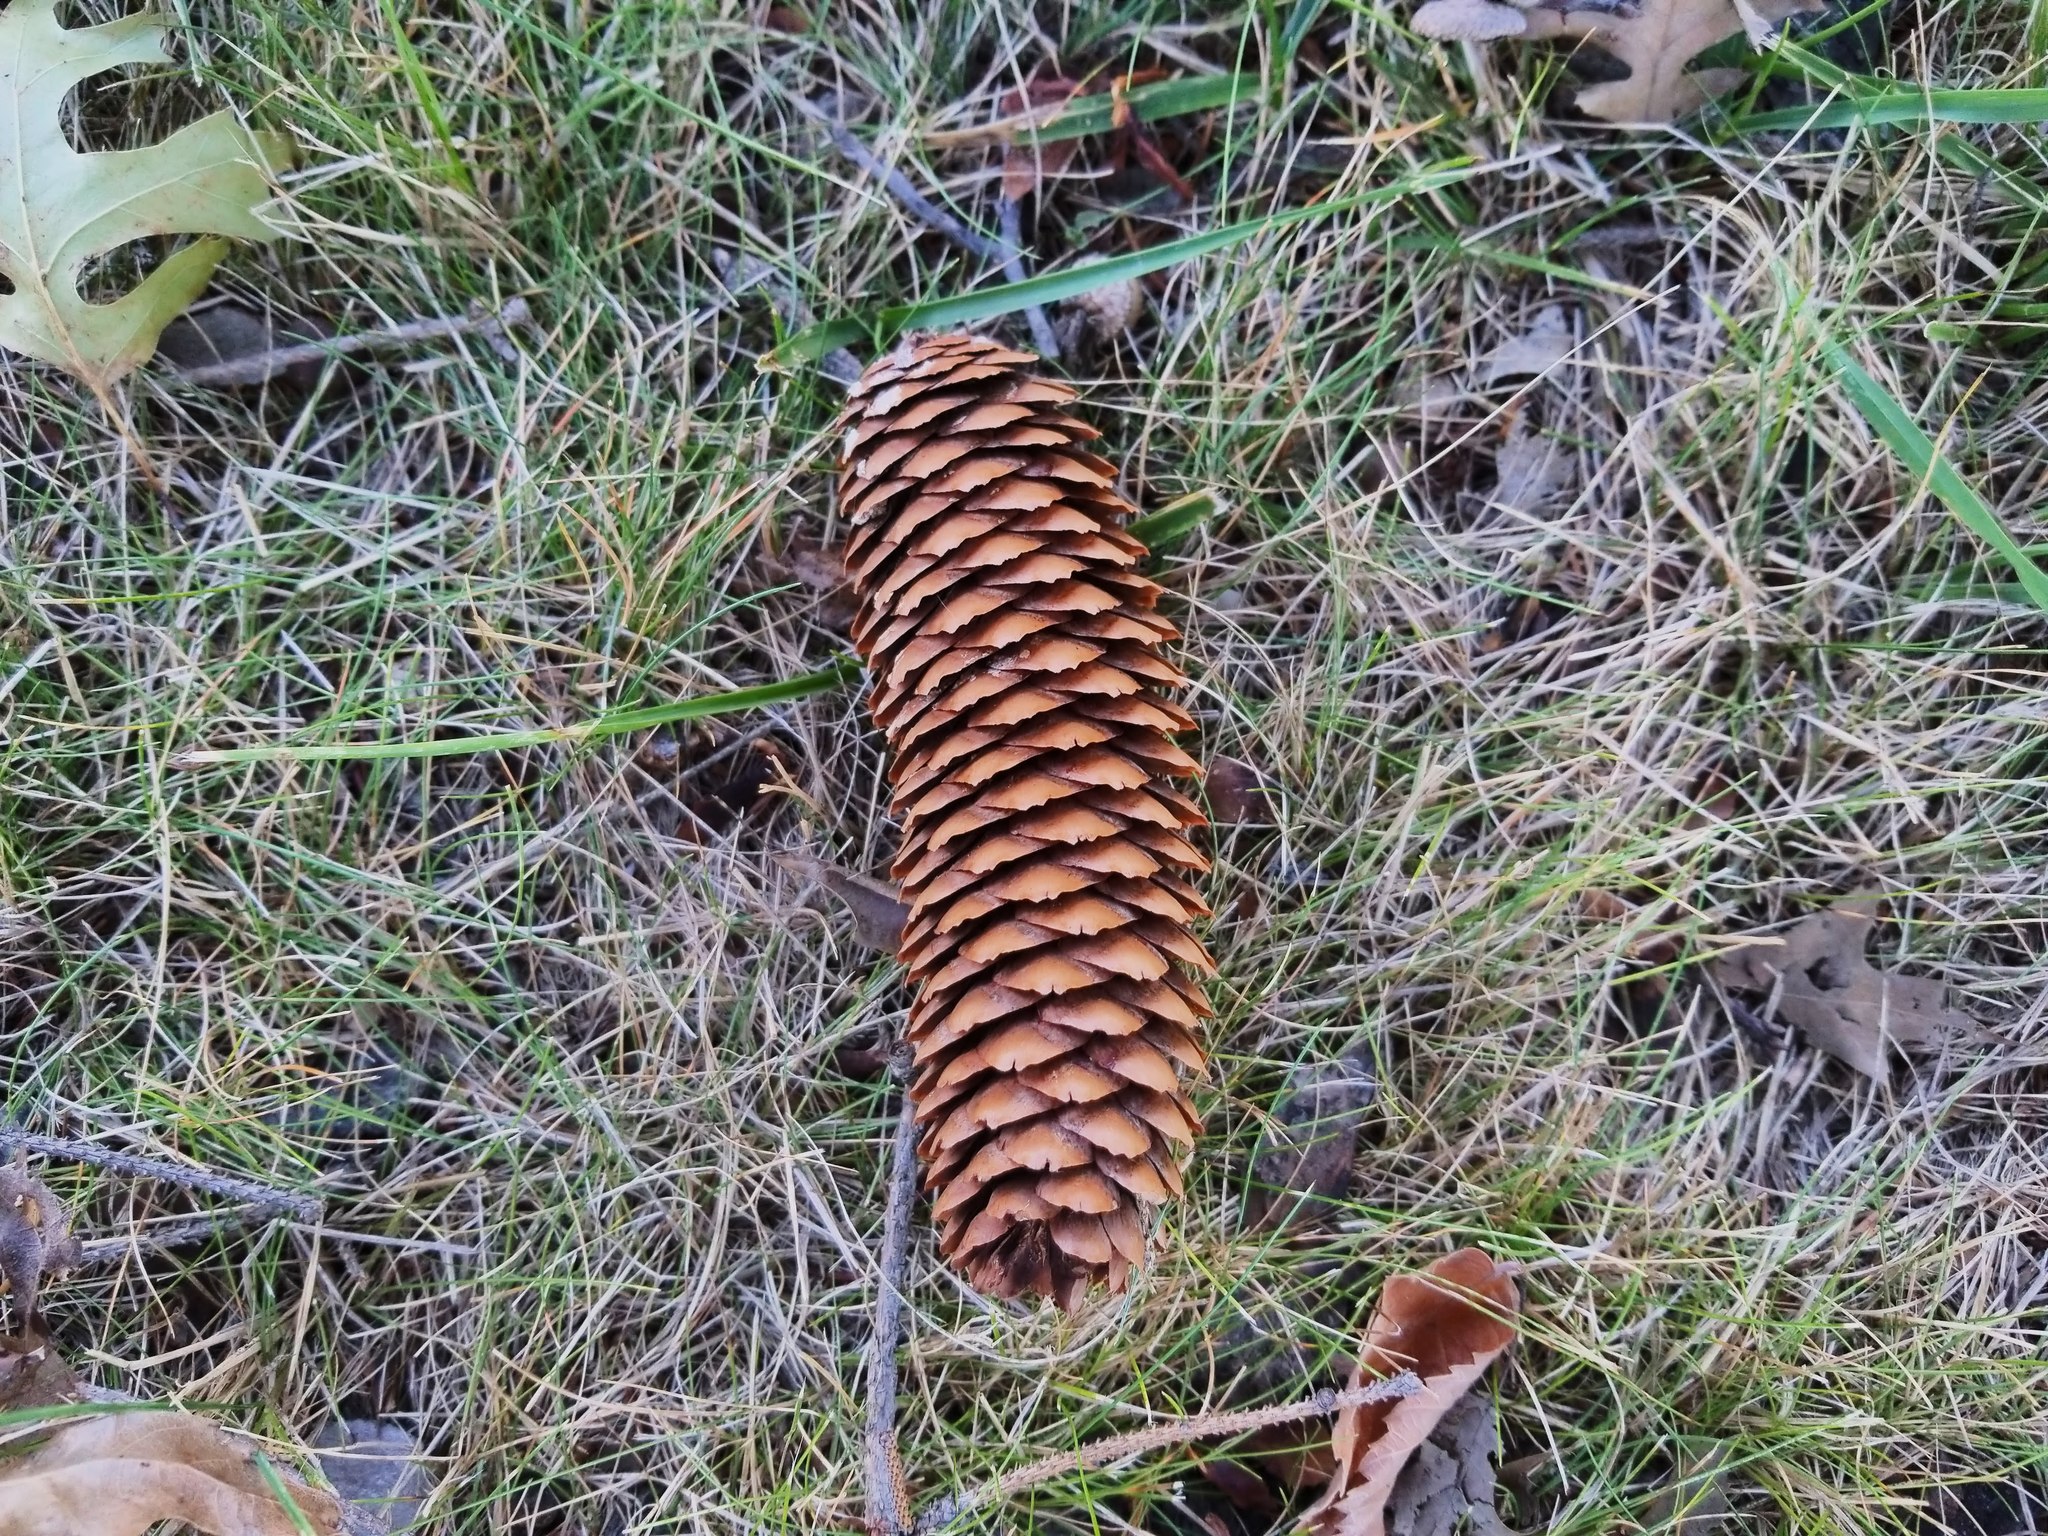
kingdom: Plantae
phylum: Tracheophyta
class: Pinopsida
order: Pinales
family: Pinaceae
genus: Picea
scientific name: Picea abies
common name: Norway spruce
